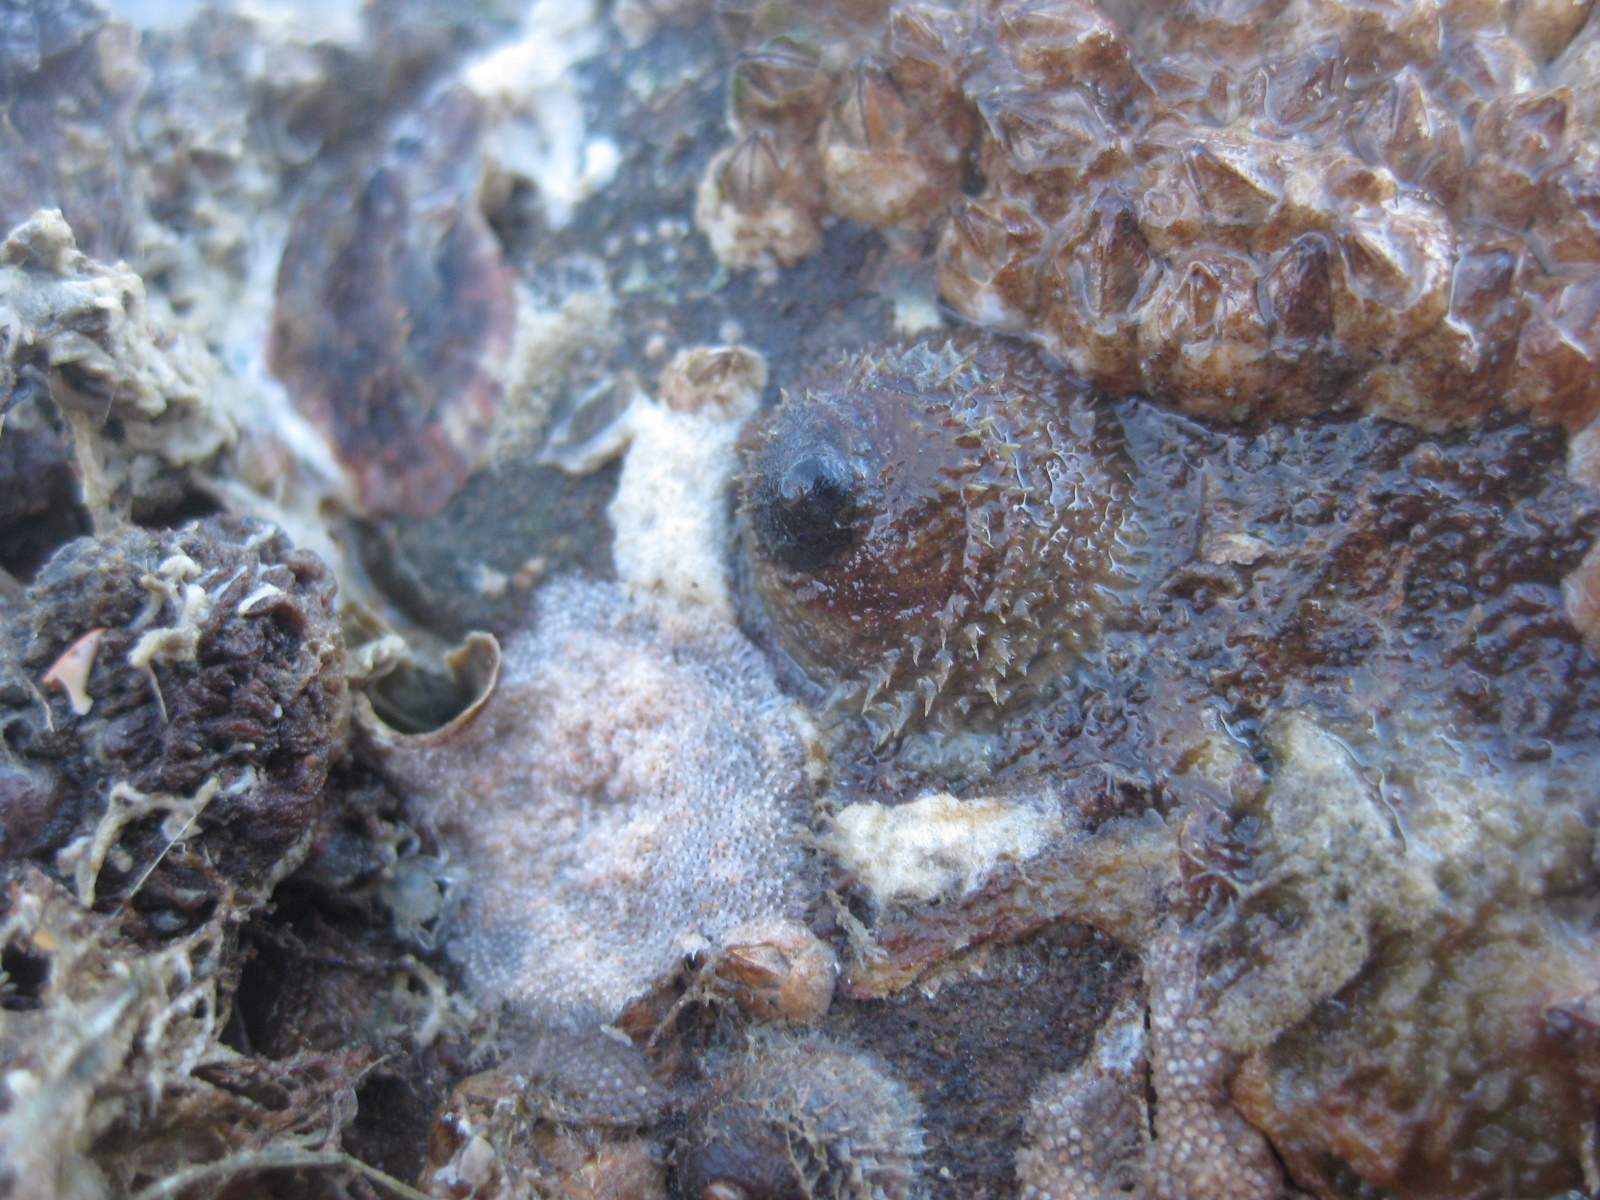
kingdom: Animalia
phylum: Mollusca
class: Gastropoda
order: Littorinimorpha
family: Calyptraeidae
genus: Sigapatella
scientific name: Sigapatella novaezelandiae
